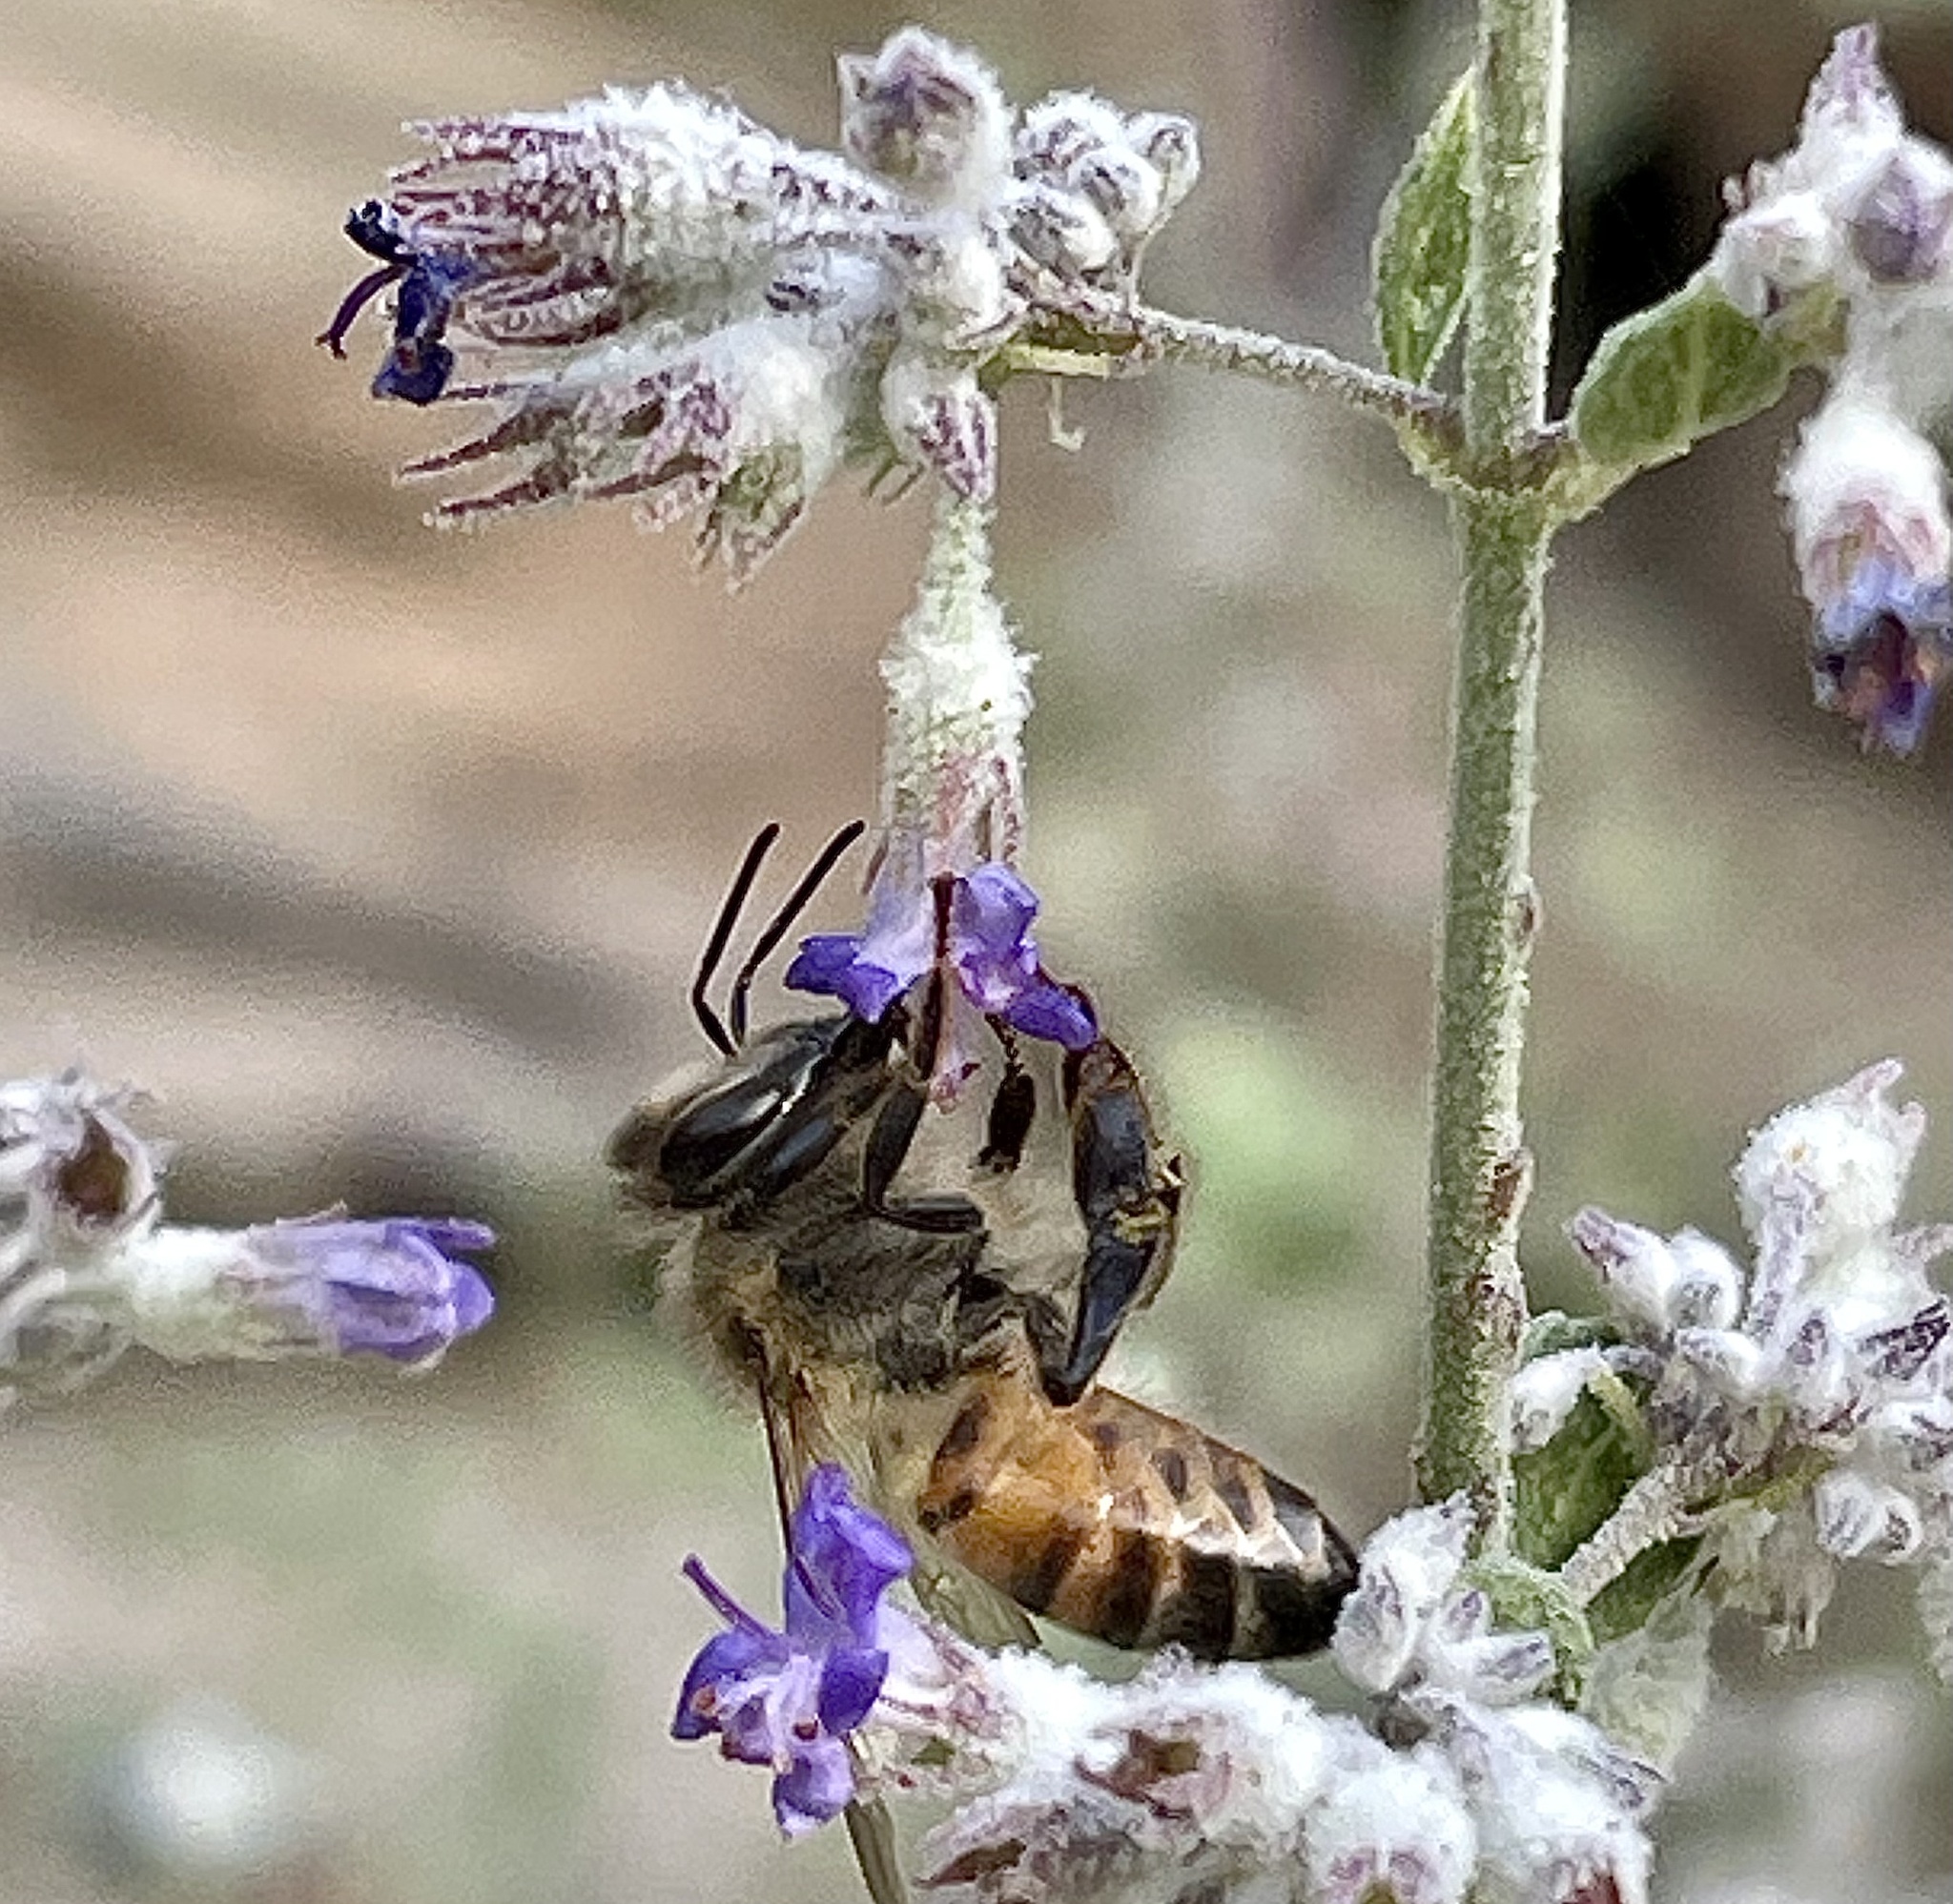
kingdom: Plantae
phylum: Tracheophyta
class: Magnoliopsida
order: Lamiales
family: Lamiaceae
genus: Condea
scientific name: Condea emoryi
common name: Chia
